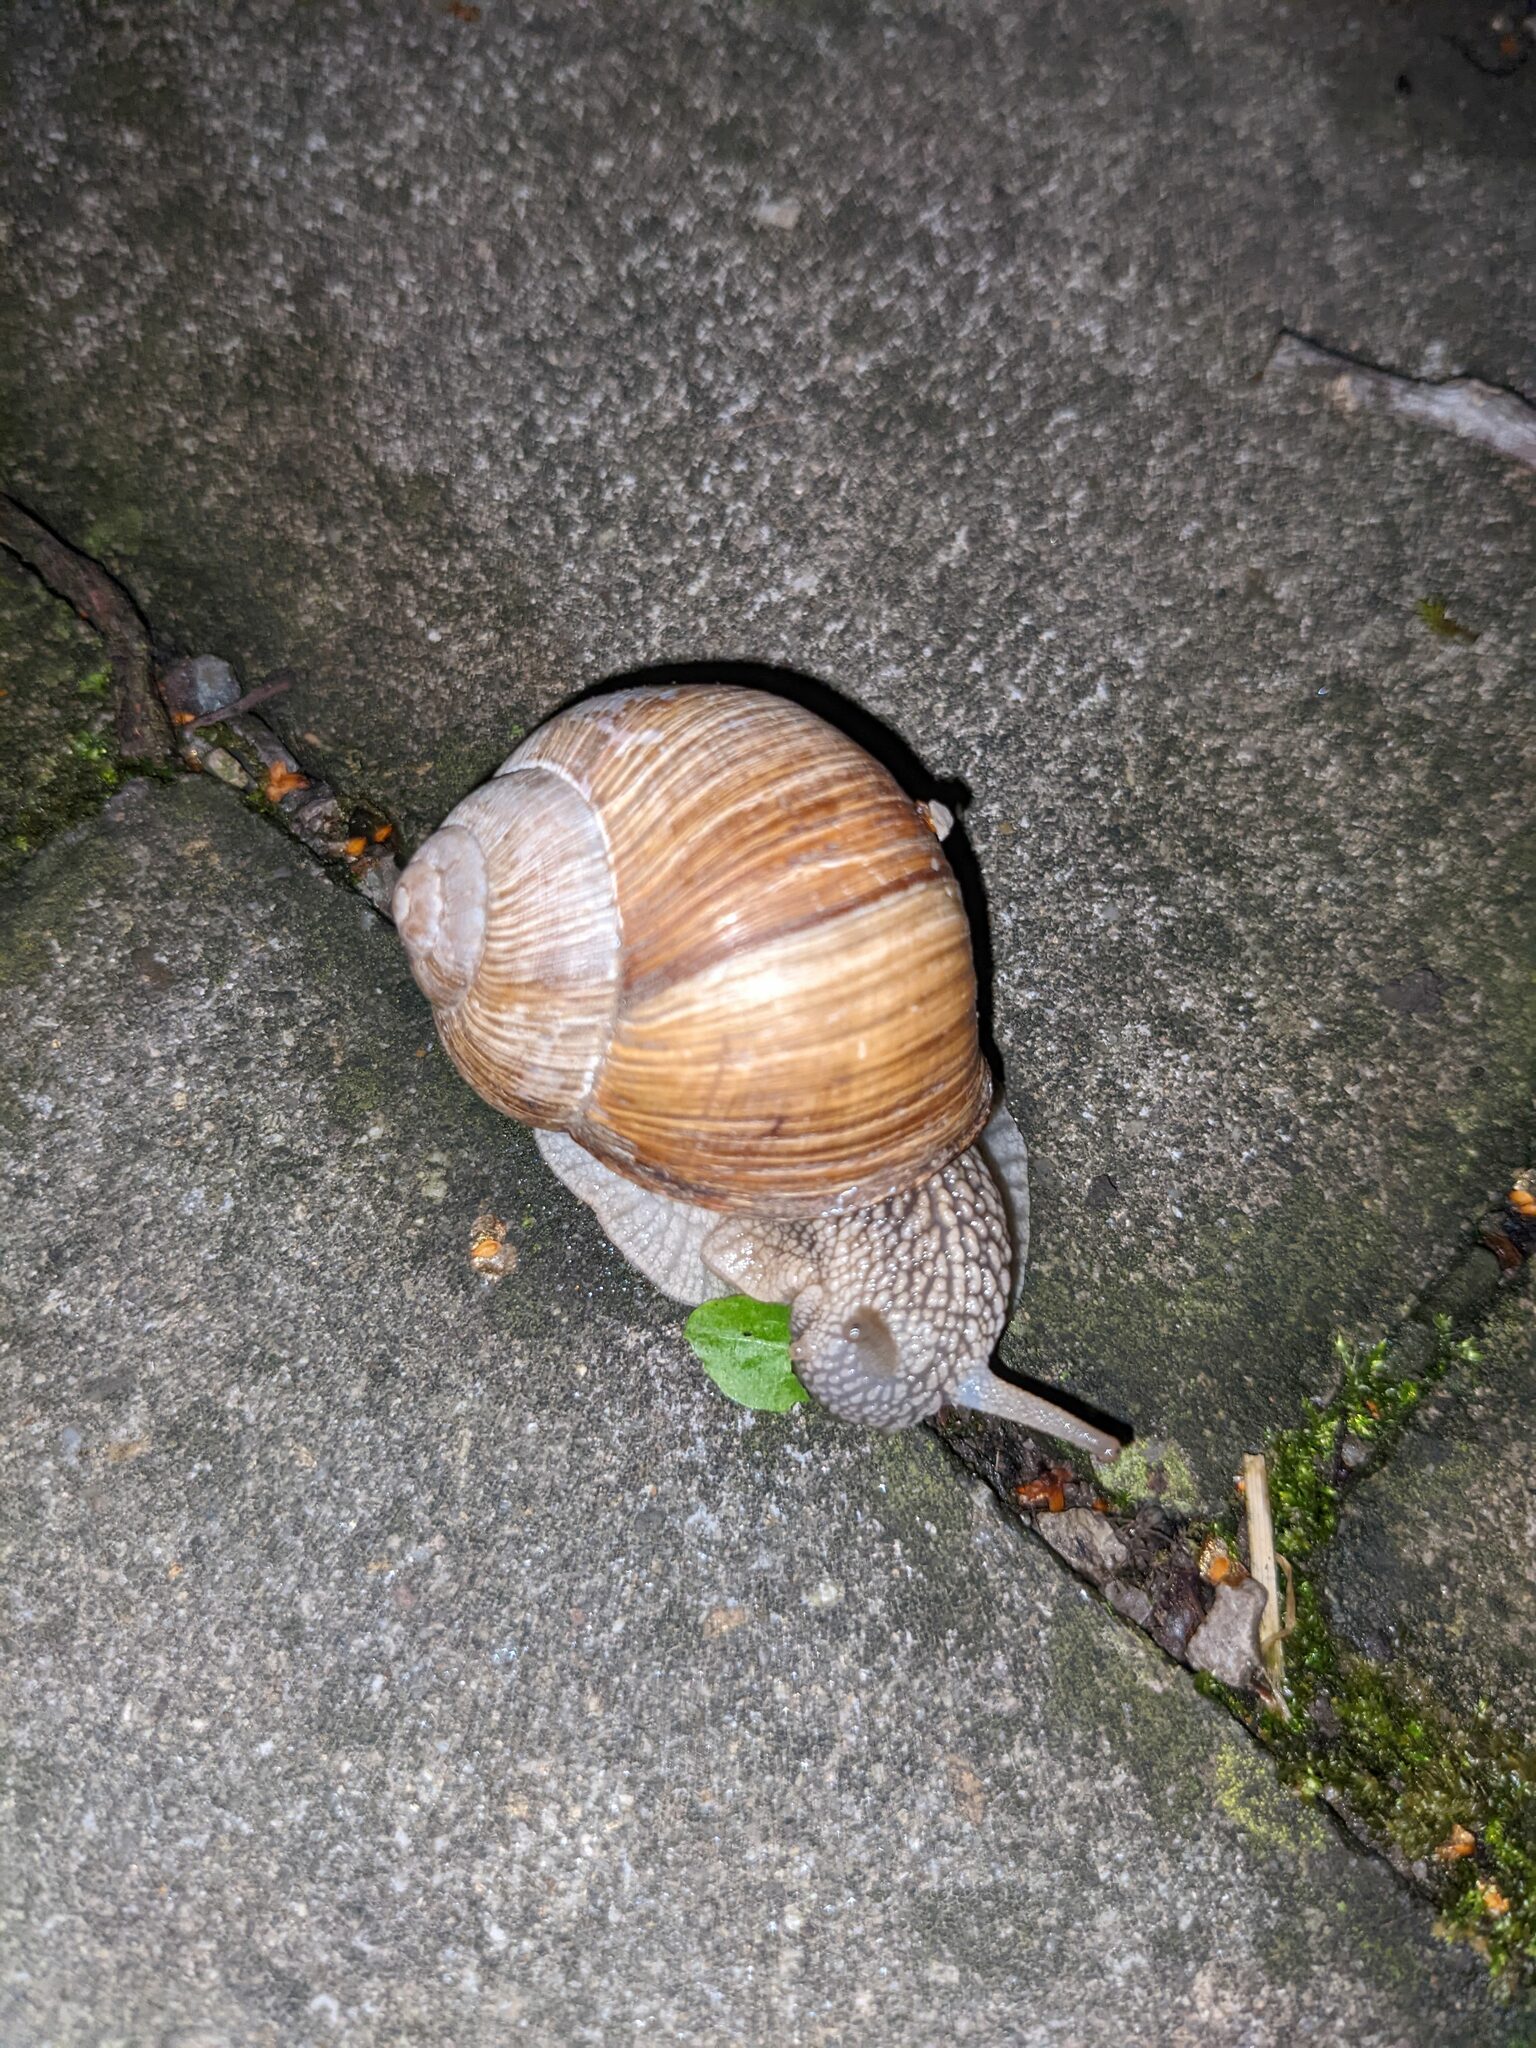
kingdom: Animalia
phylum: Mollusca
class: Gastropoda
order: Stylommatophora
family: Helicidae
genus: Helix
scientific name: Helix pomatia
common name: Roman snail
